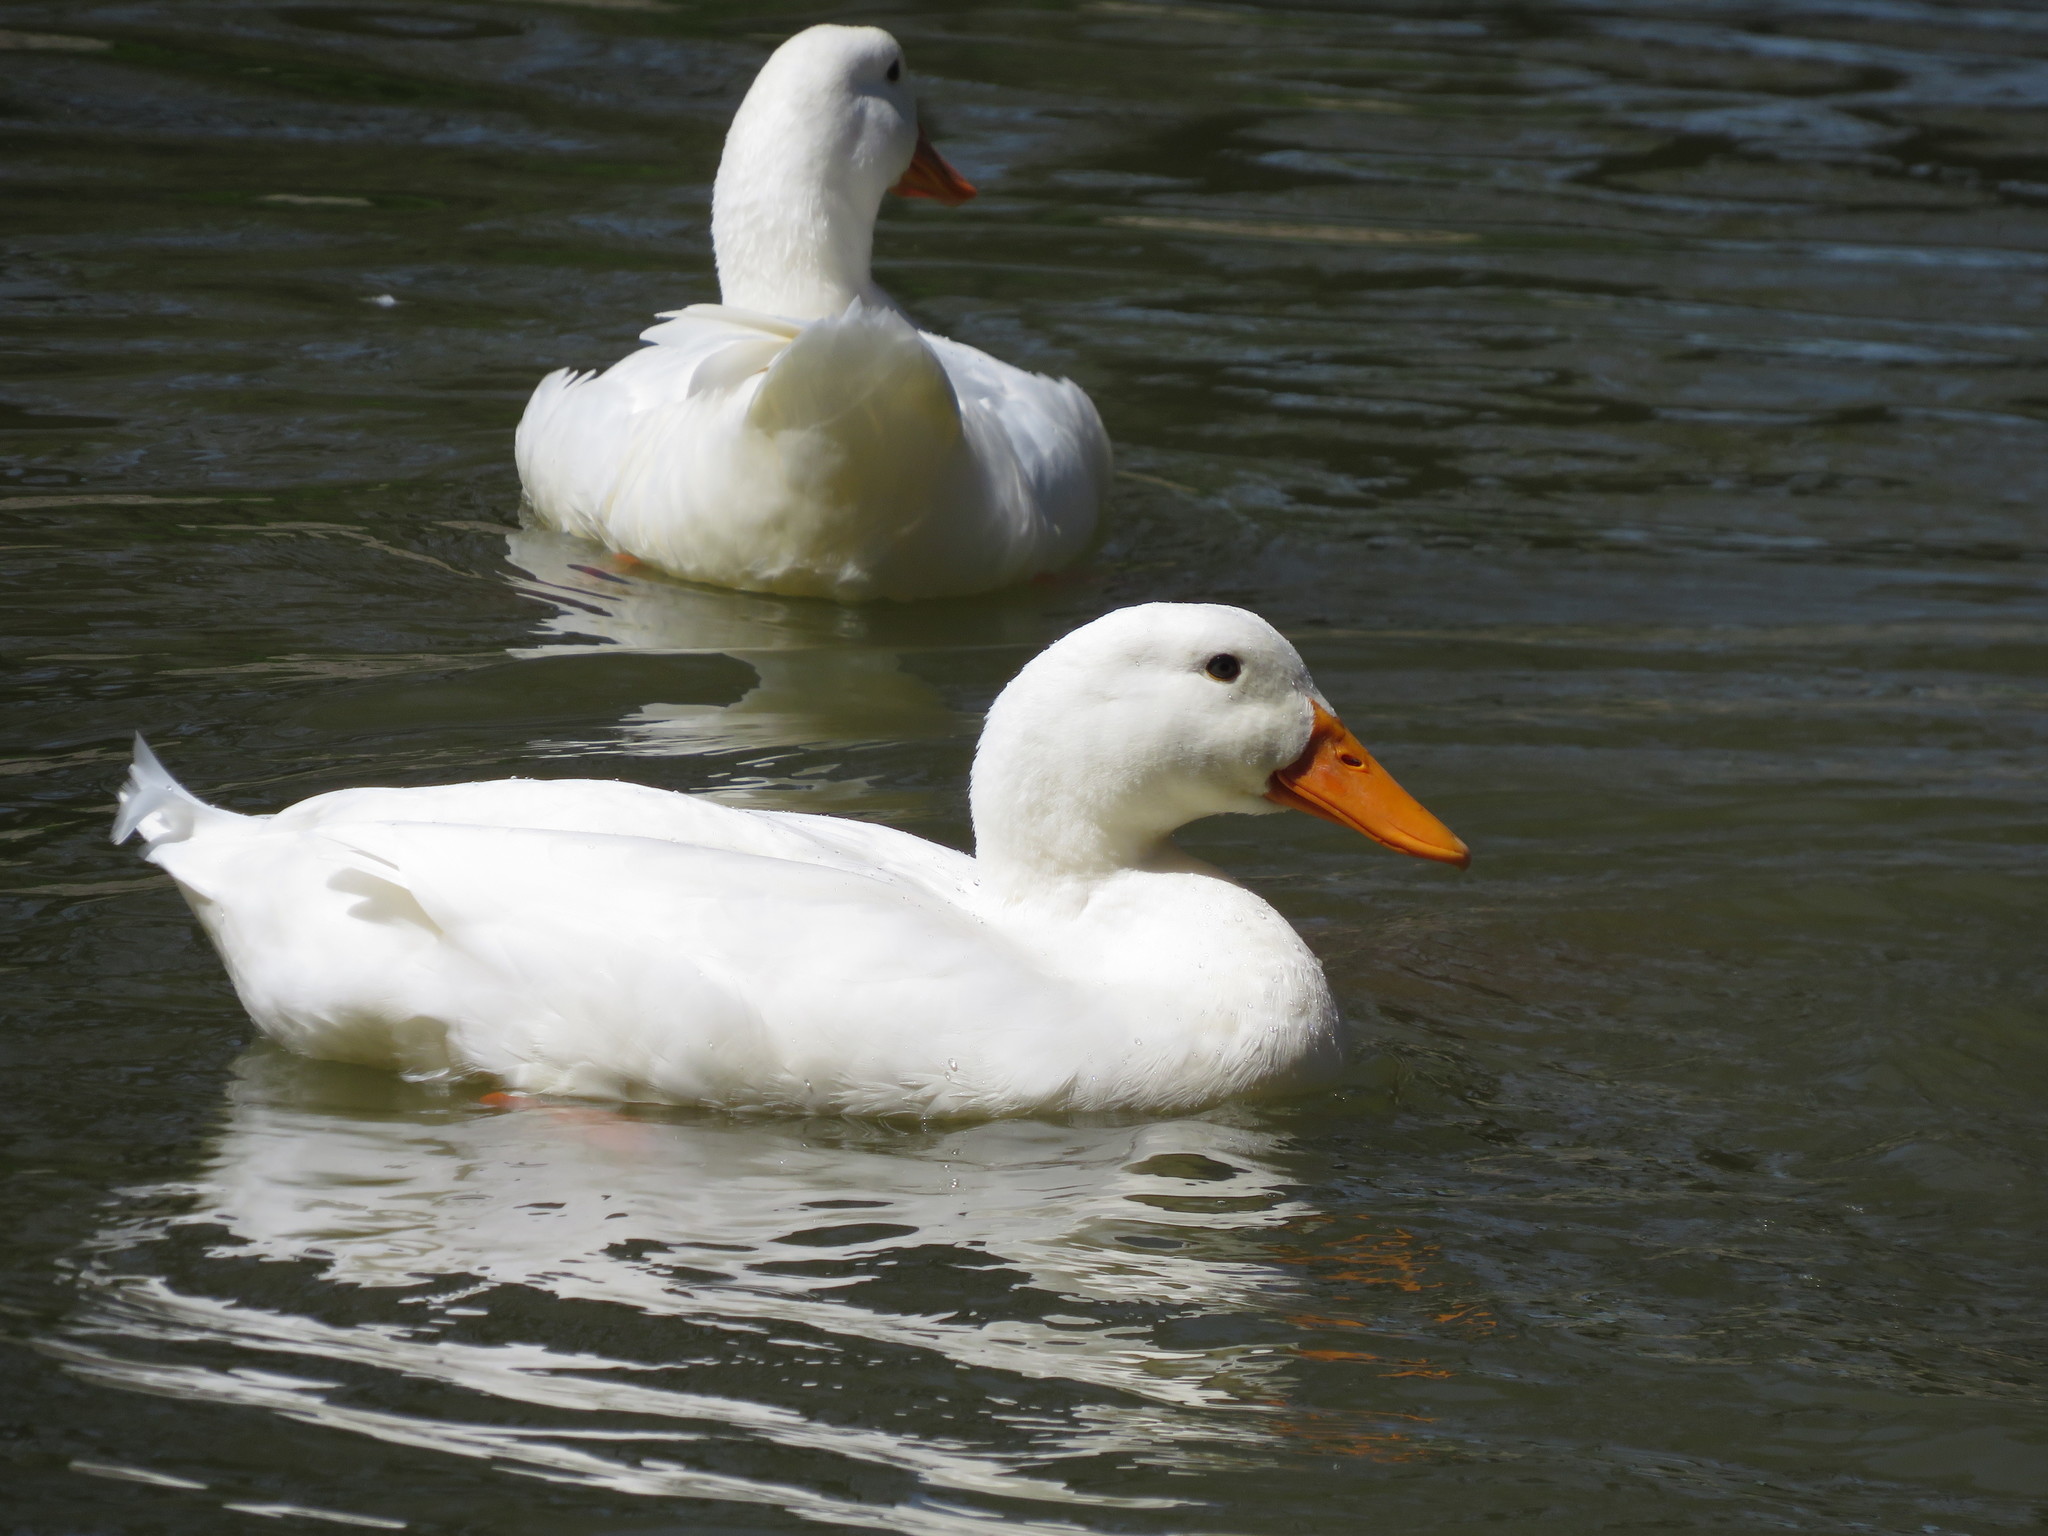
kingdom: Animalia
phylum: Chordata
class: Aves
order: Anseriformes
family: Anatidae
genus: Anas
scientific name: Anas platyrhynchos
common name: Mallard
